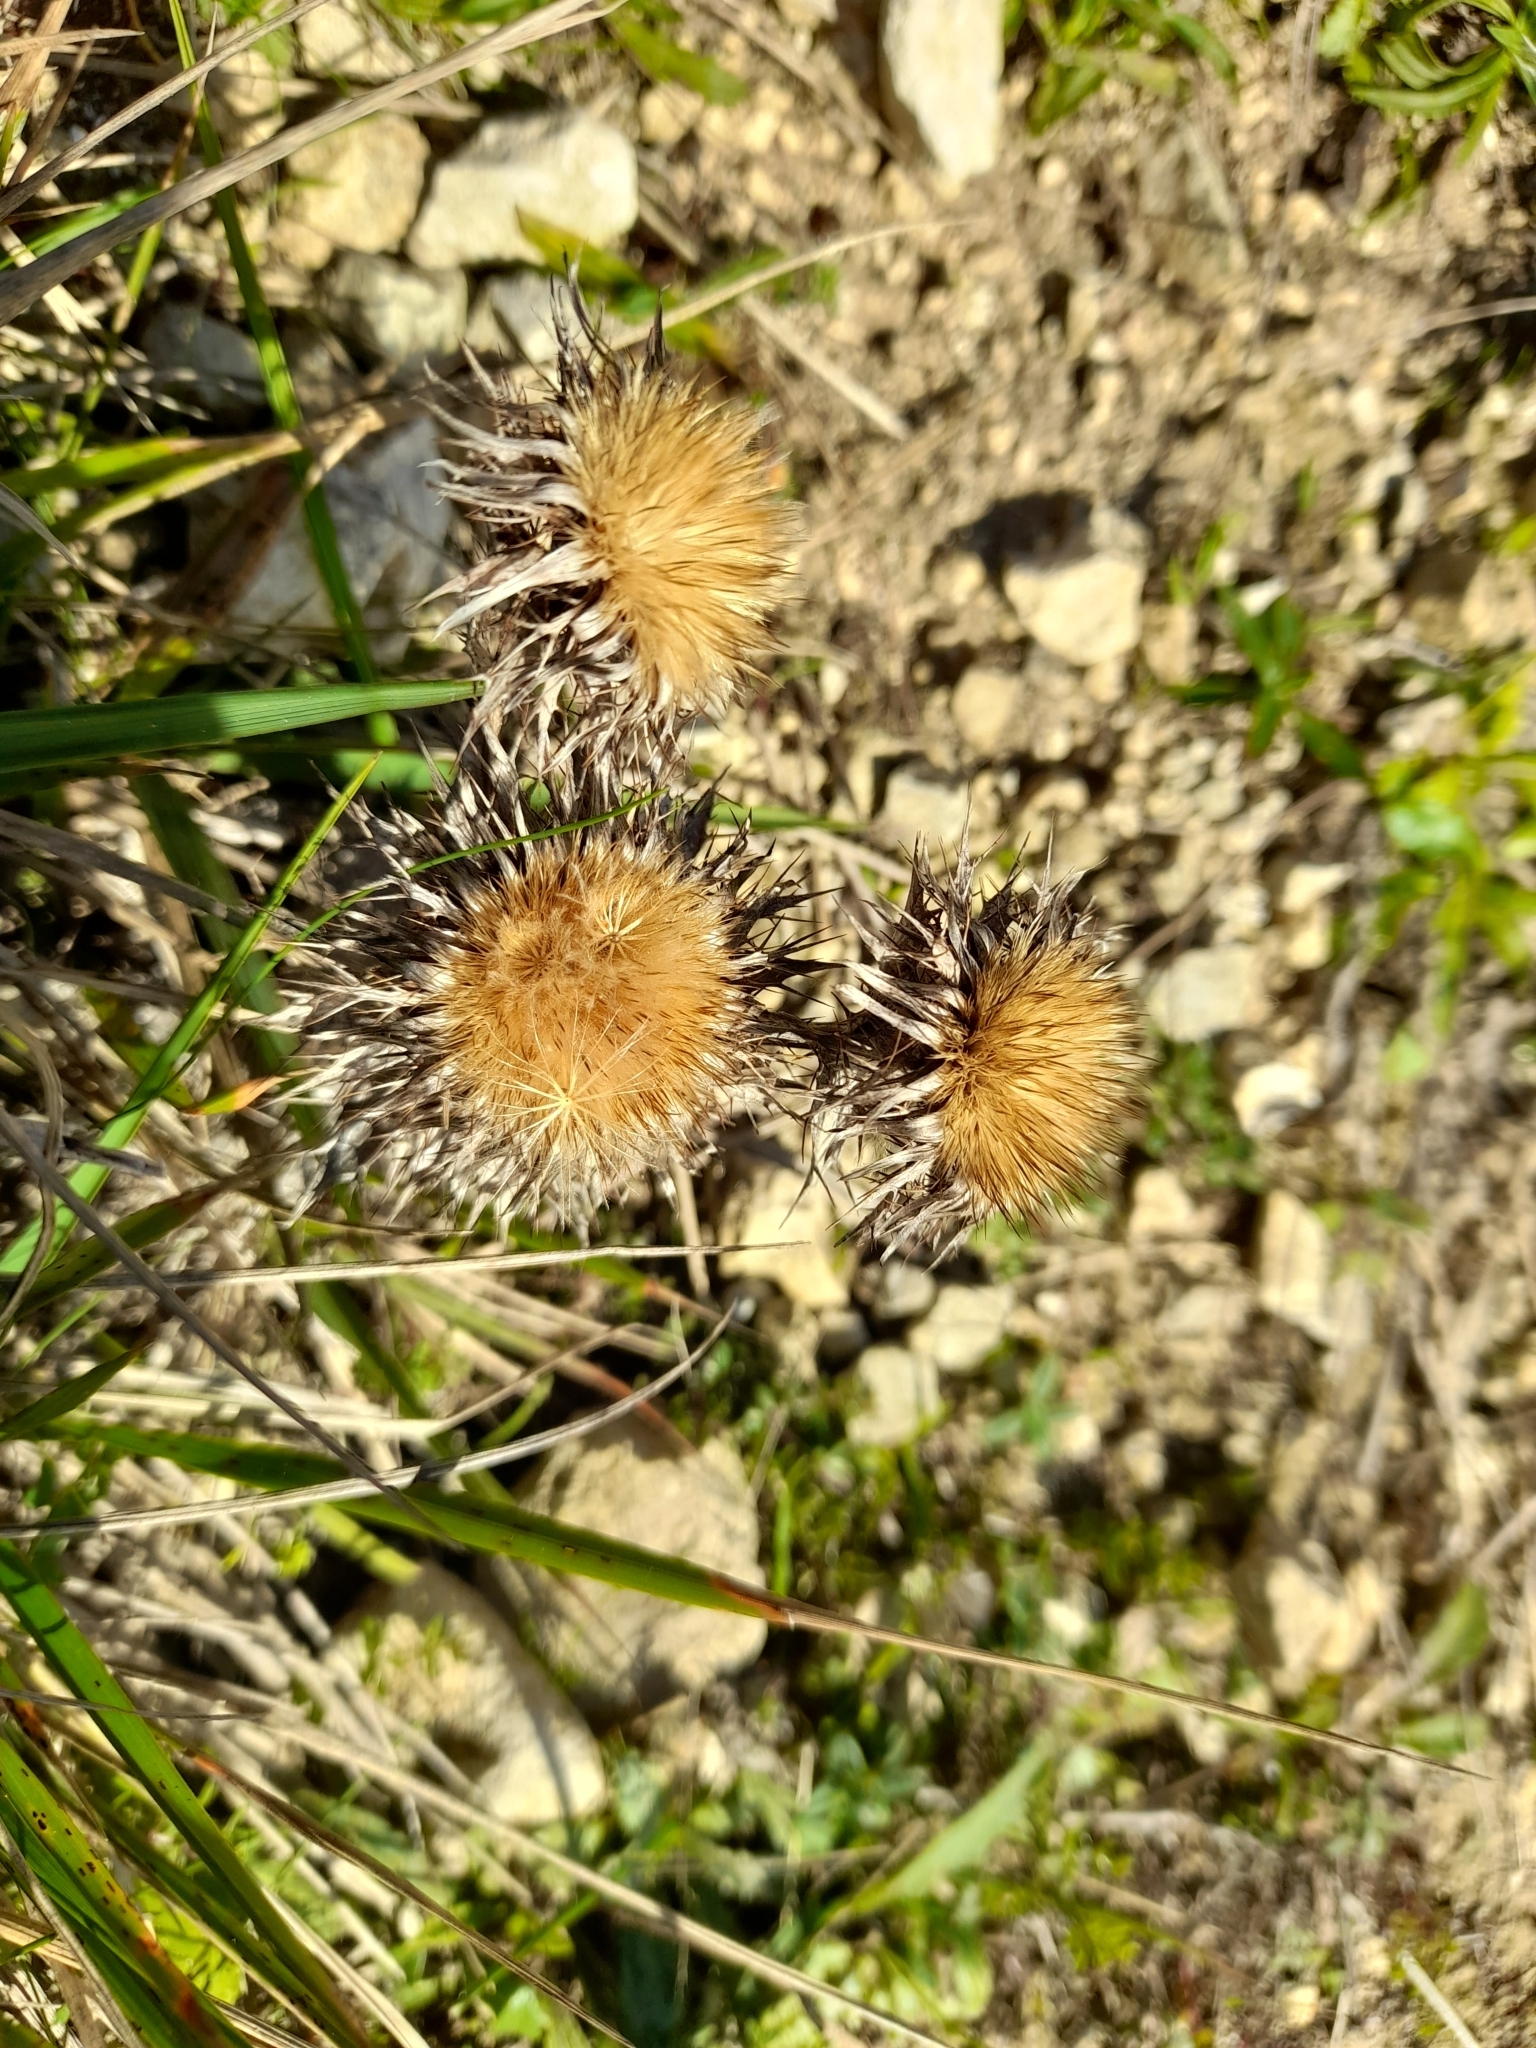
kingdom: Plantae
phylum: Tracheophyta
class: Magnoliopsida
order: Asterales
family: Asteraceae
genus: Carlina
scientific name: Carlina vulgaris
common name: Carline thistle
